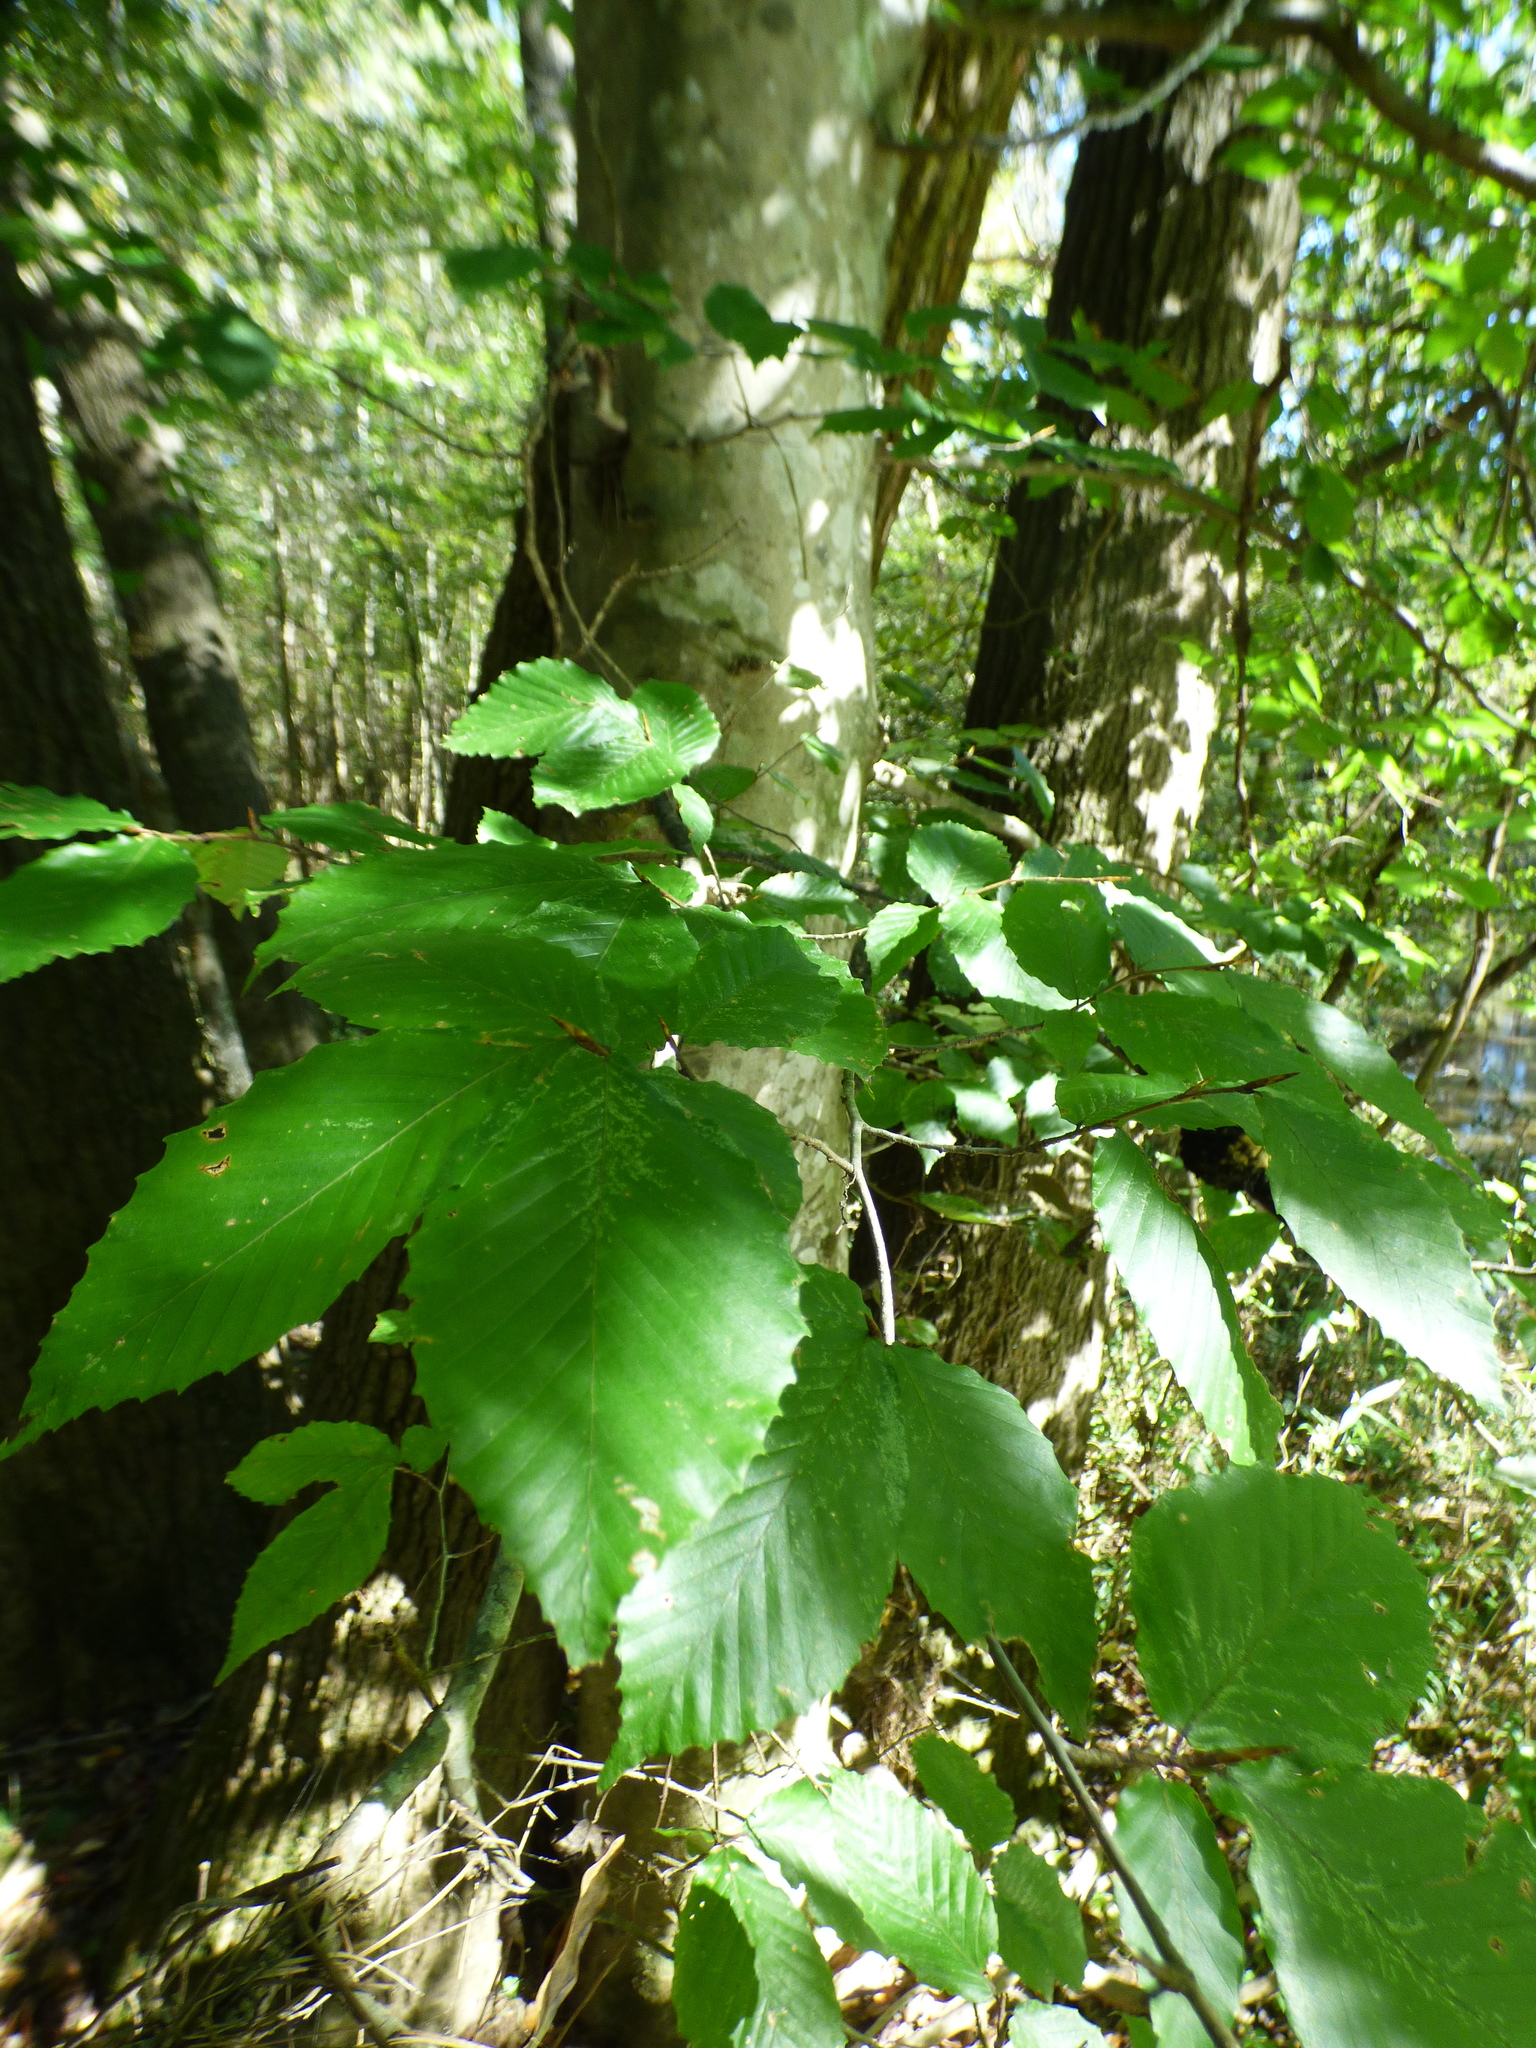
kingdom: Plantae
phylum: Tracheophyta
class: Magnoliopsida
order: Fagales
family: Fagaceae
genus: Fagus
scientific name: Fagus grandifolia
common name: American beech
